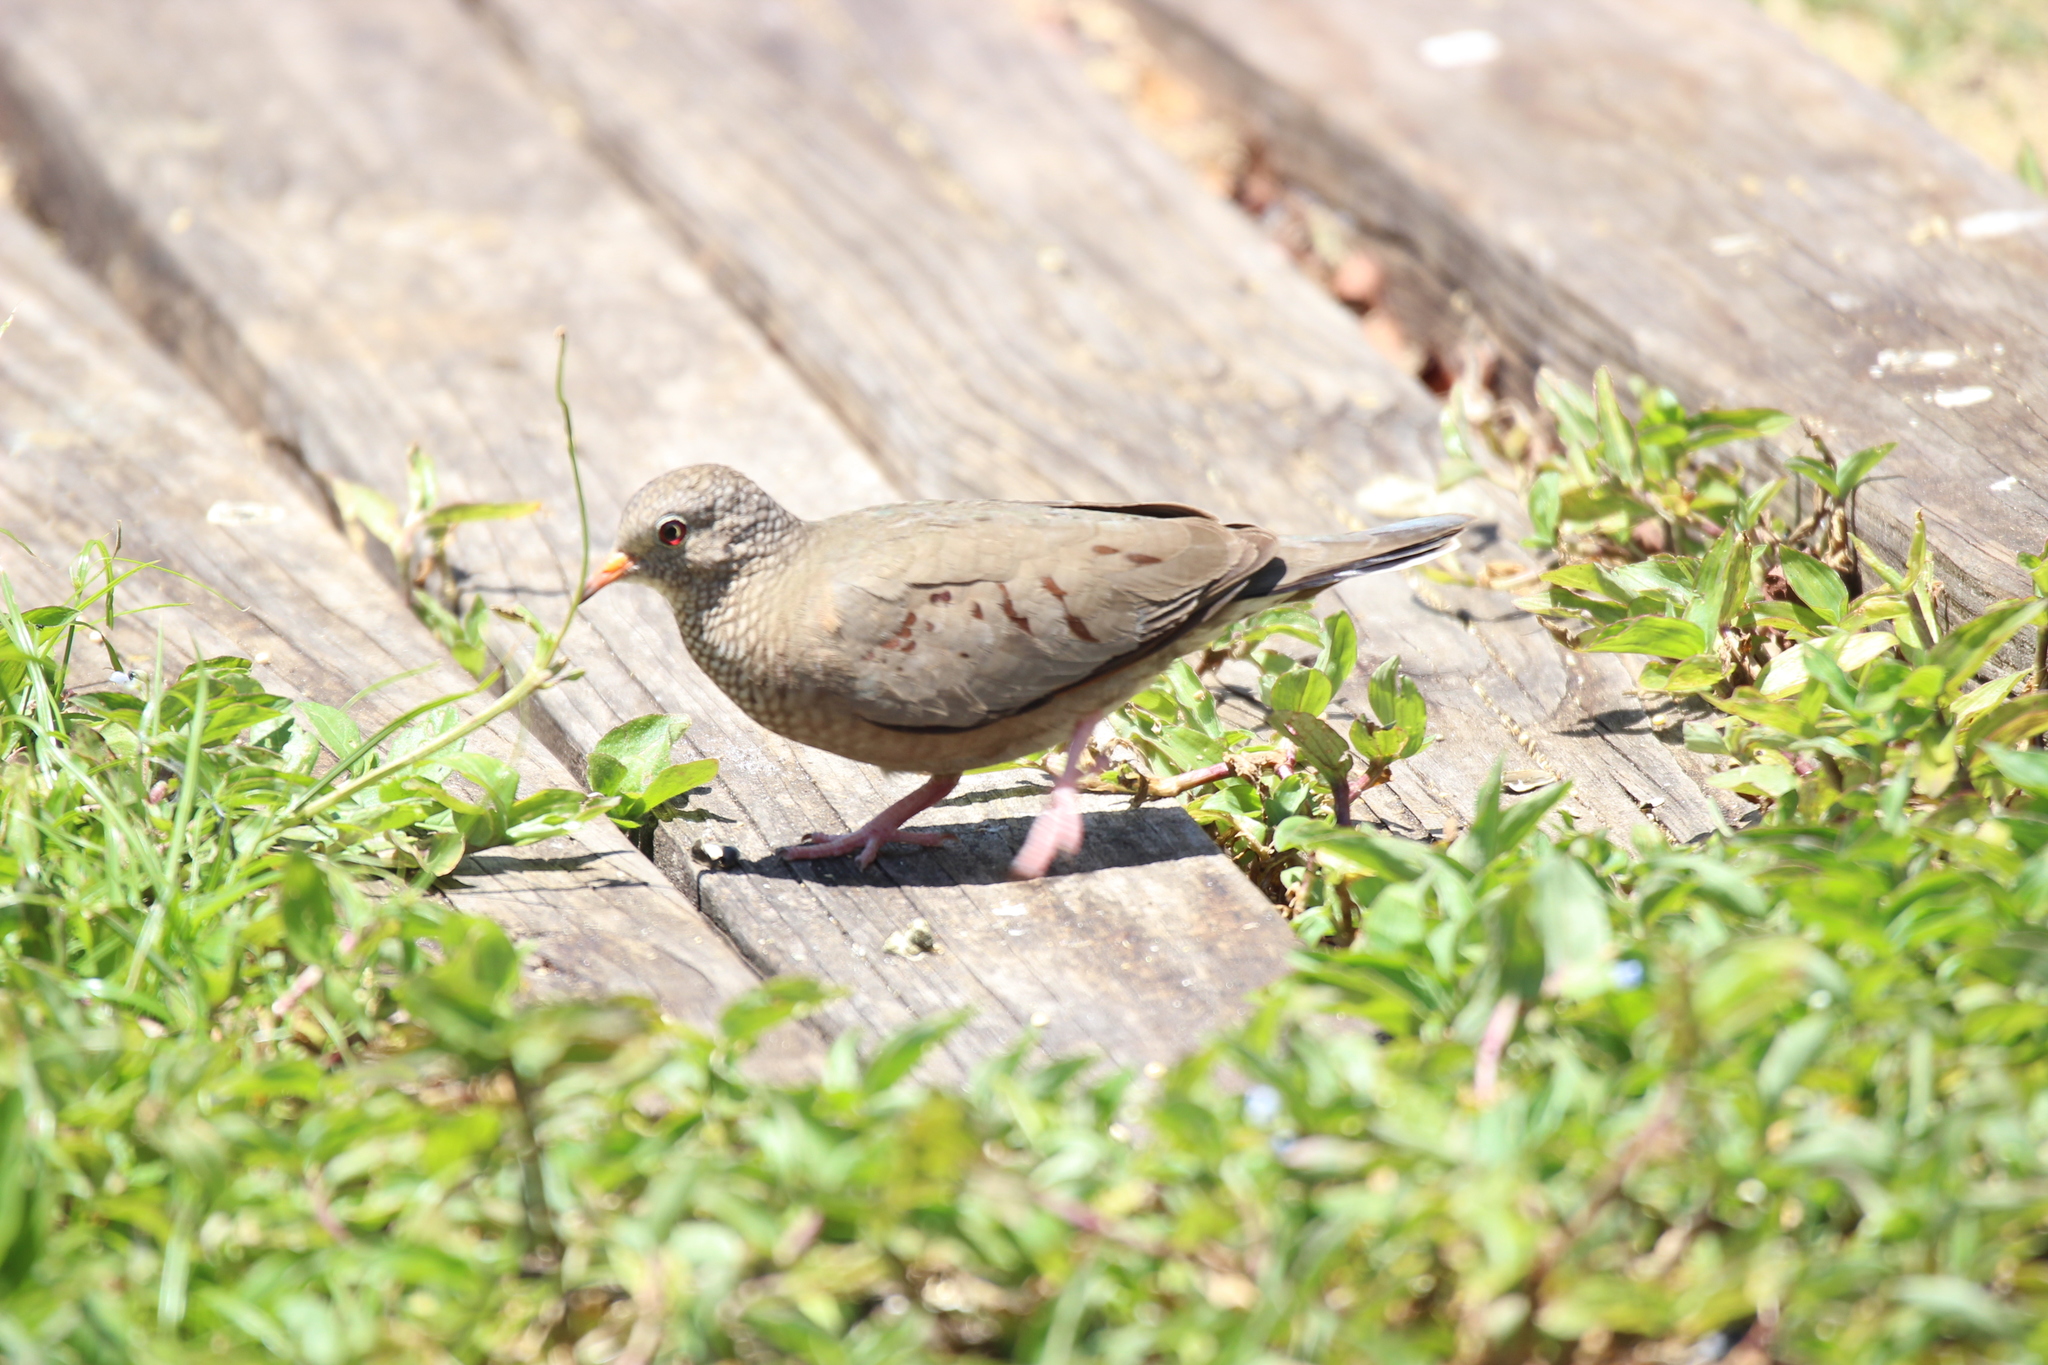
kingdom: Animalia
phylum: Chordata
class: Aves
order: Columbiformes
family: Columbidae
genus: Columbina
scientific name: Columbina passerina
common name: Common ground-dove
